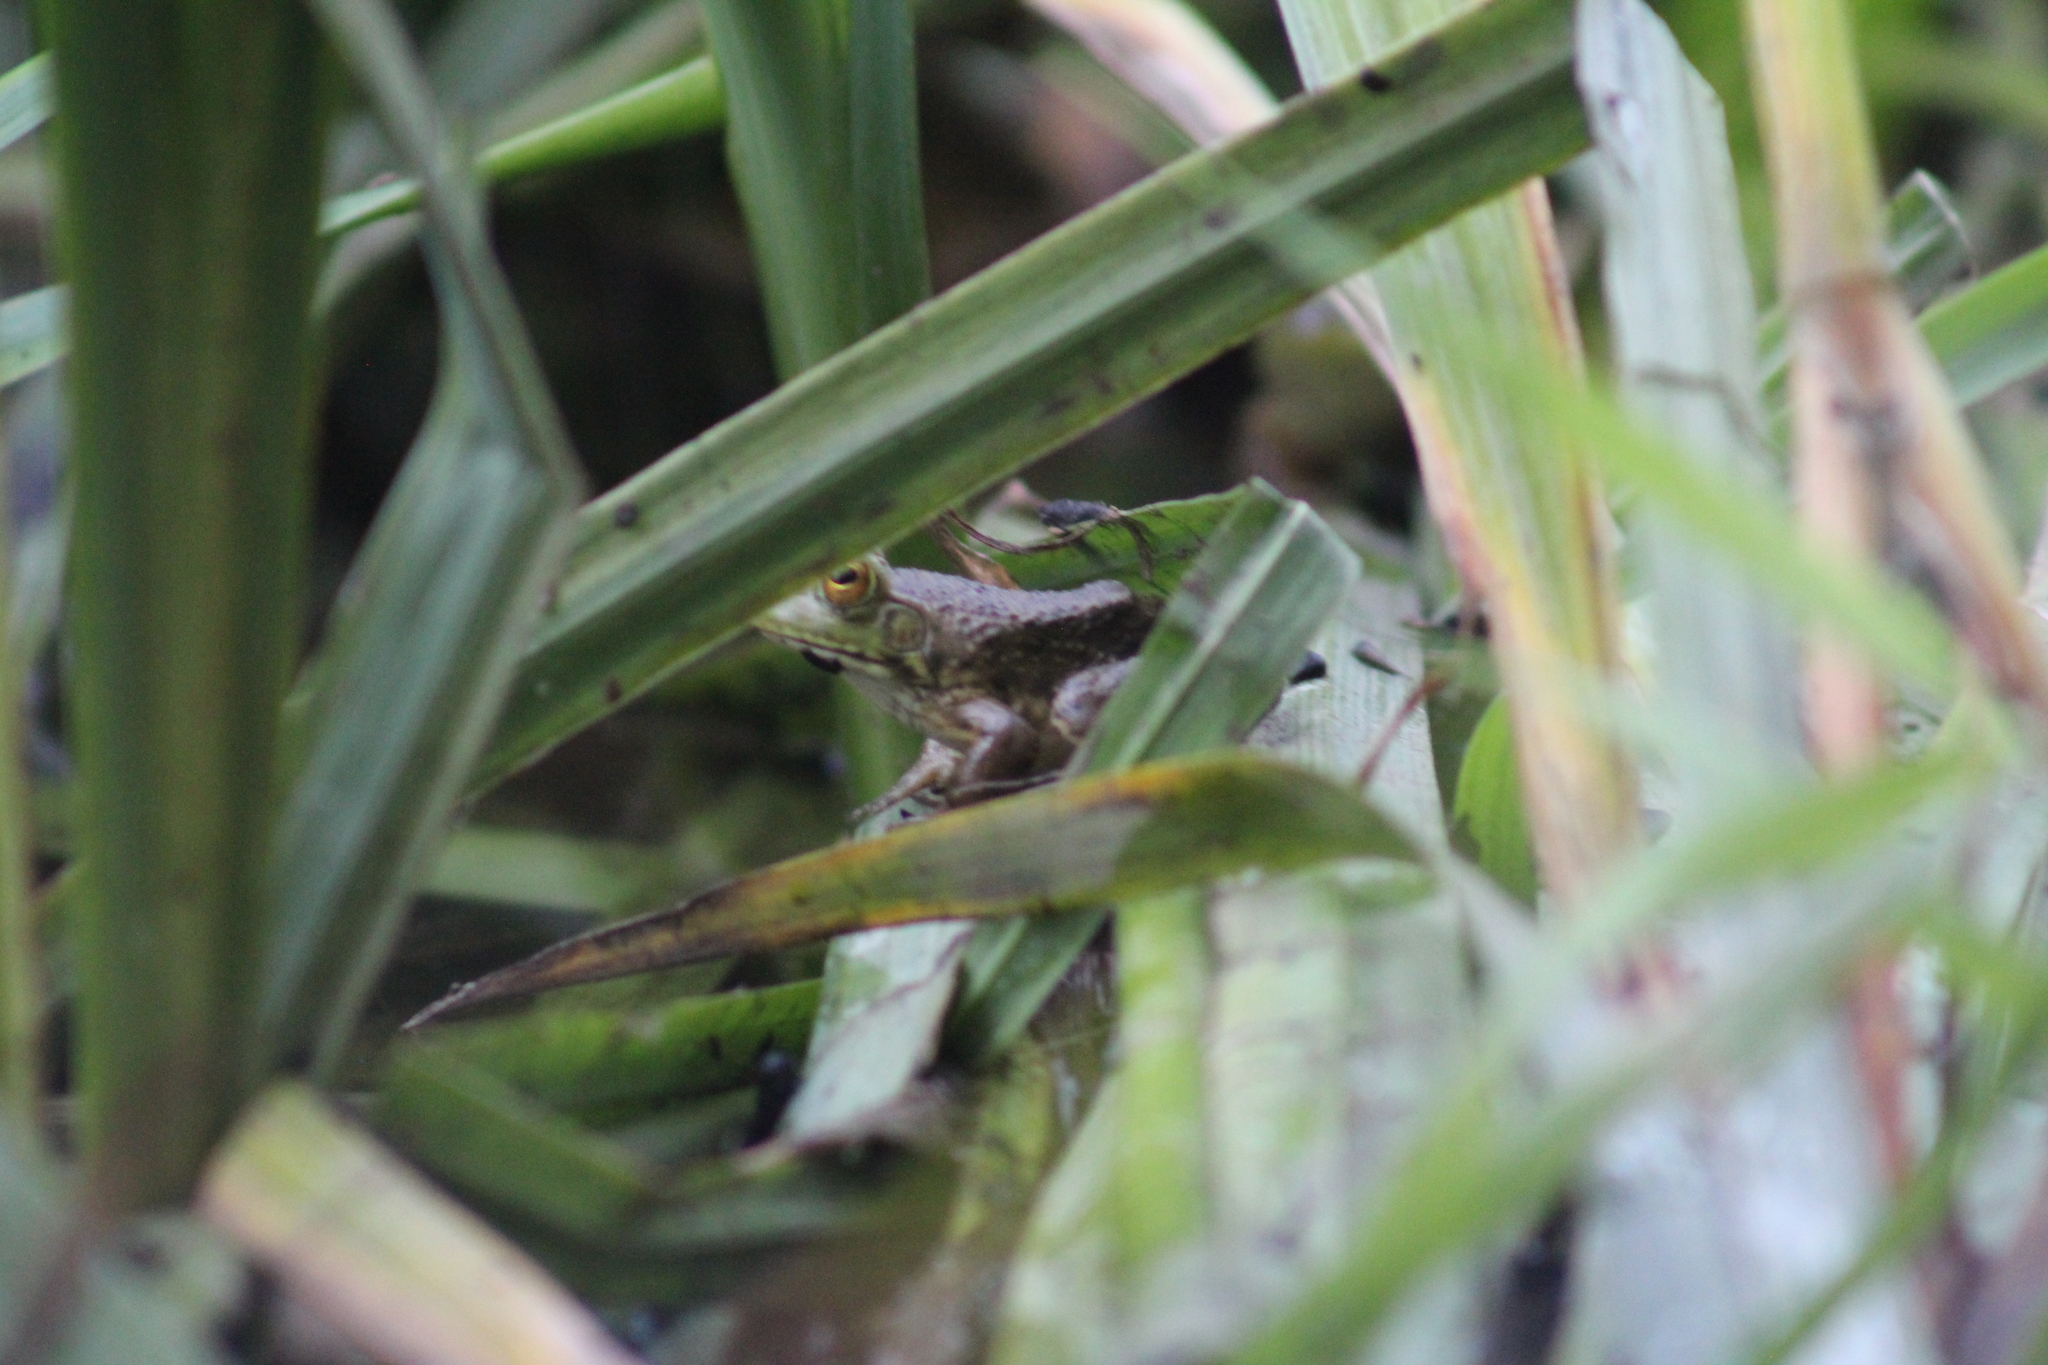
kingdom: Animalia
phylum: Chordata
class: Amphibia
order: Anura
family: Ranidae
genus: Lithobates
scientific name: Lithobates catesbeianus
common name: American bullfrog
